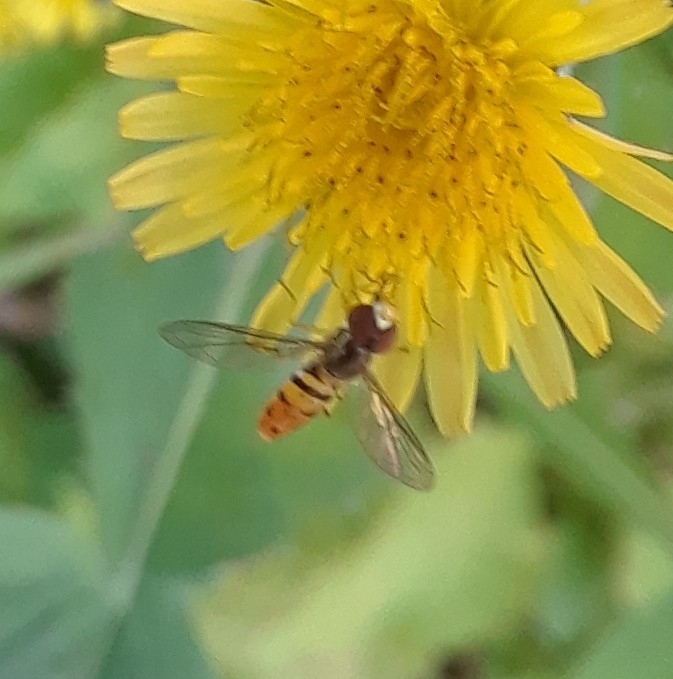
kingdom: Animalia
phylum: Arthropoda
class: Insecta
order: Diptera
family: Syrphidae
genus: Toxomerus
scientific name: Toxomerus marginatus
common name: Syrphid fly
